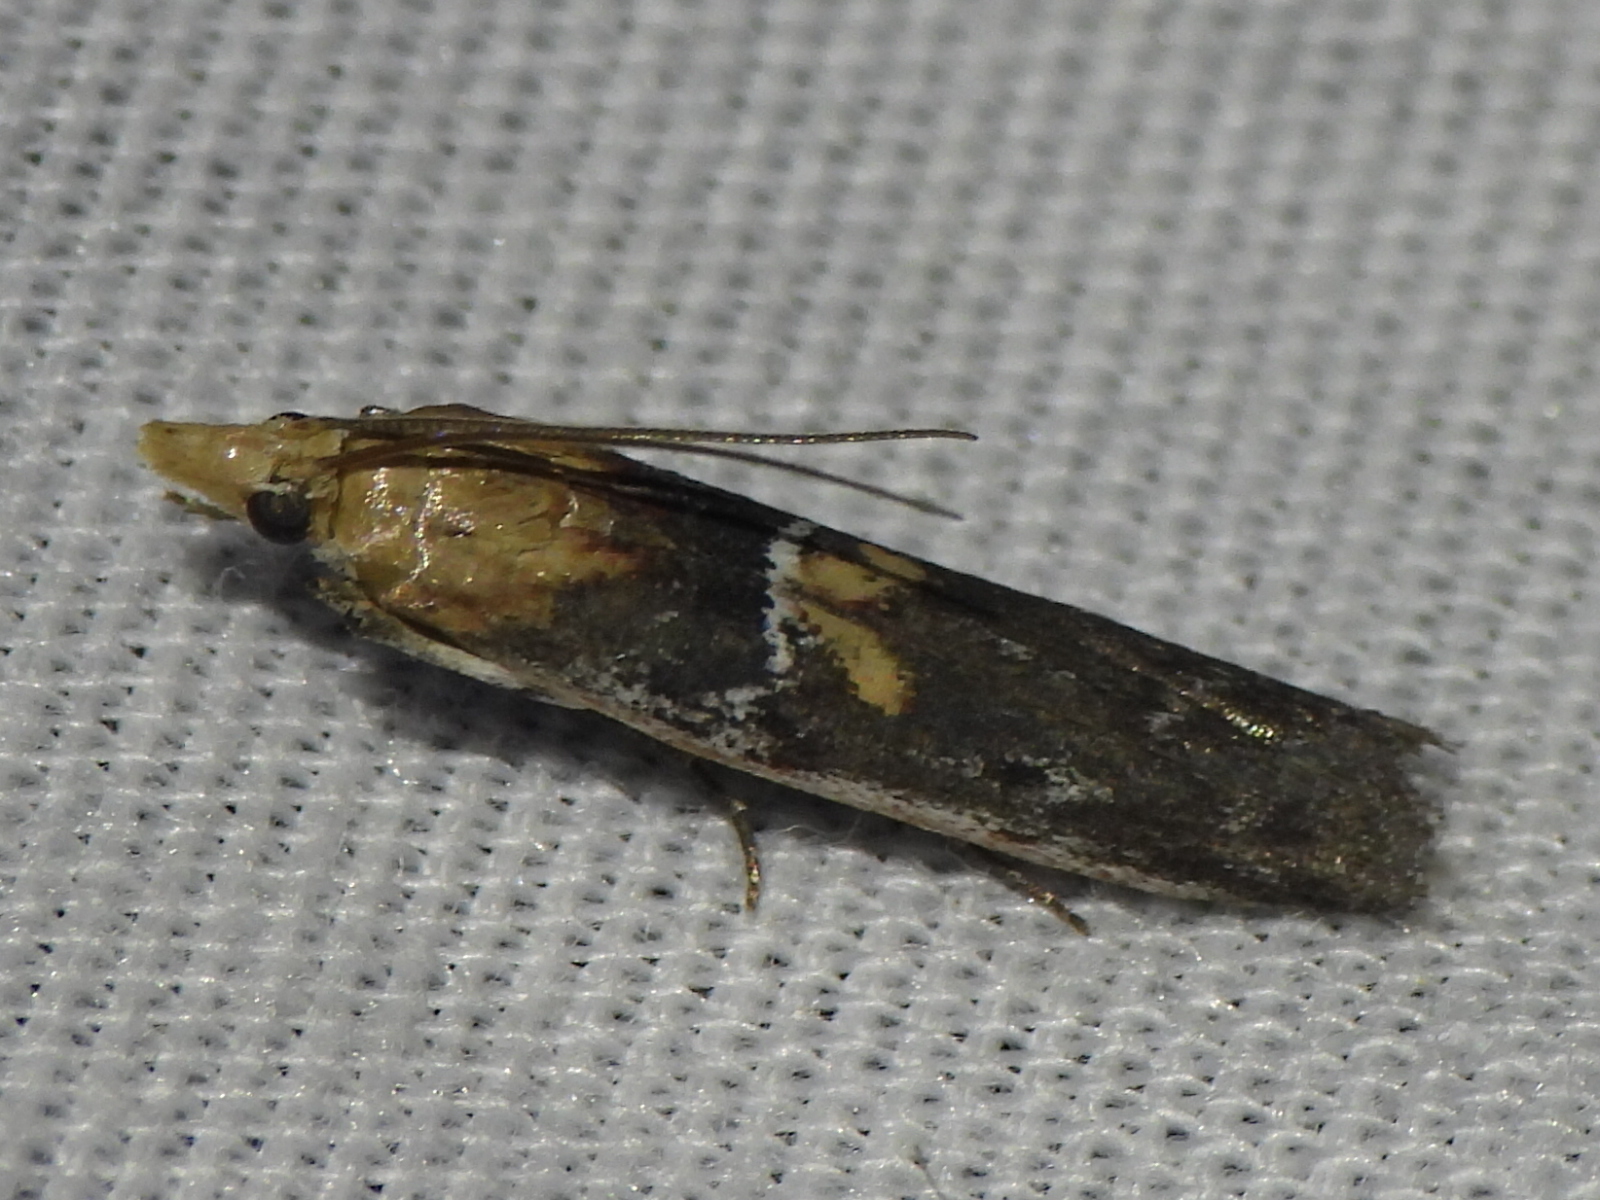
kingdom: Animalia
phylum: Arthropoda
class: Insecta
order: Lepidoptera
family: Pyralidae
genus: Honora
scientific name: Honora mellinella
